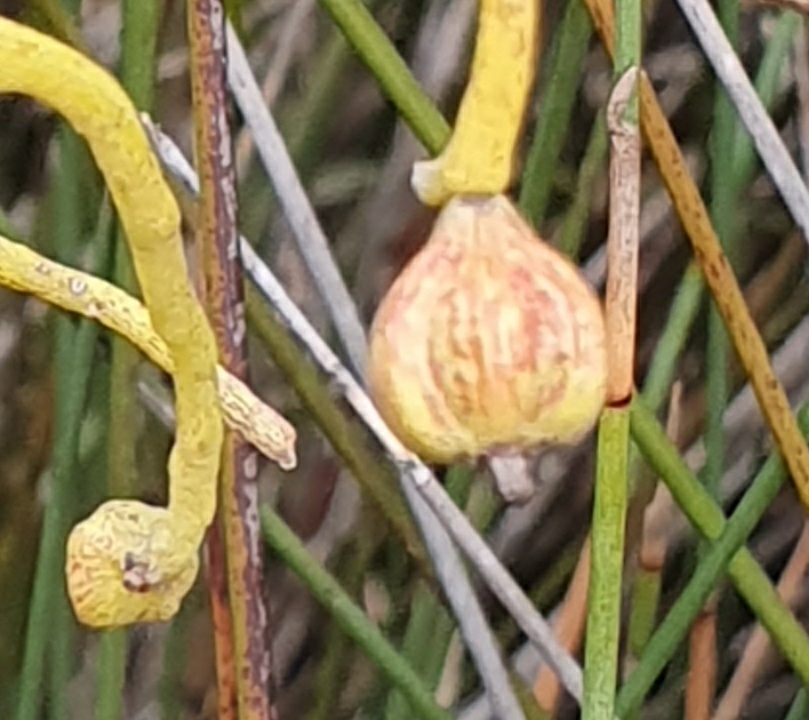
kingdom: Plantae
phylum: Tracheophyta
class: Magnoliopsida
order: Laurales
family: Lauraceae
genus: Cassytha
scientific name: Cassytha pubescens
